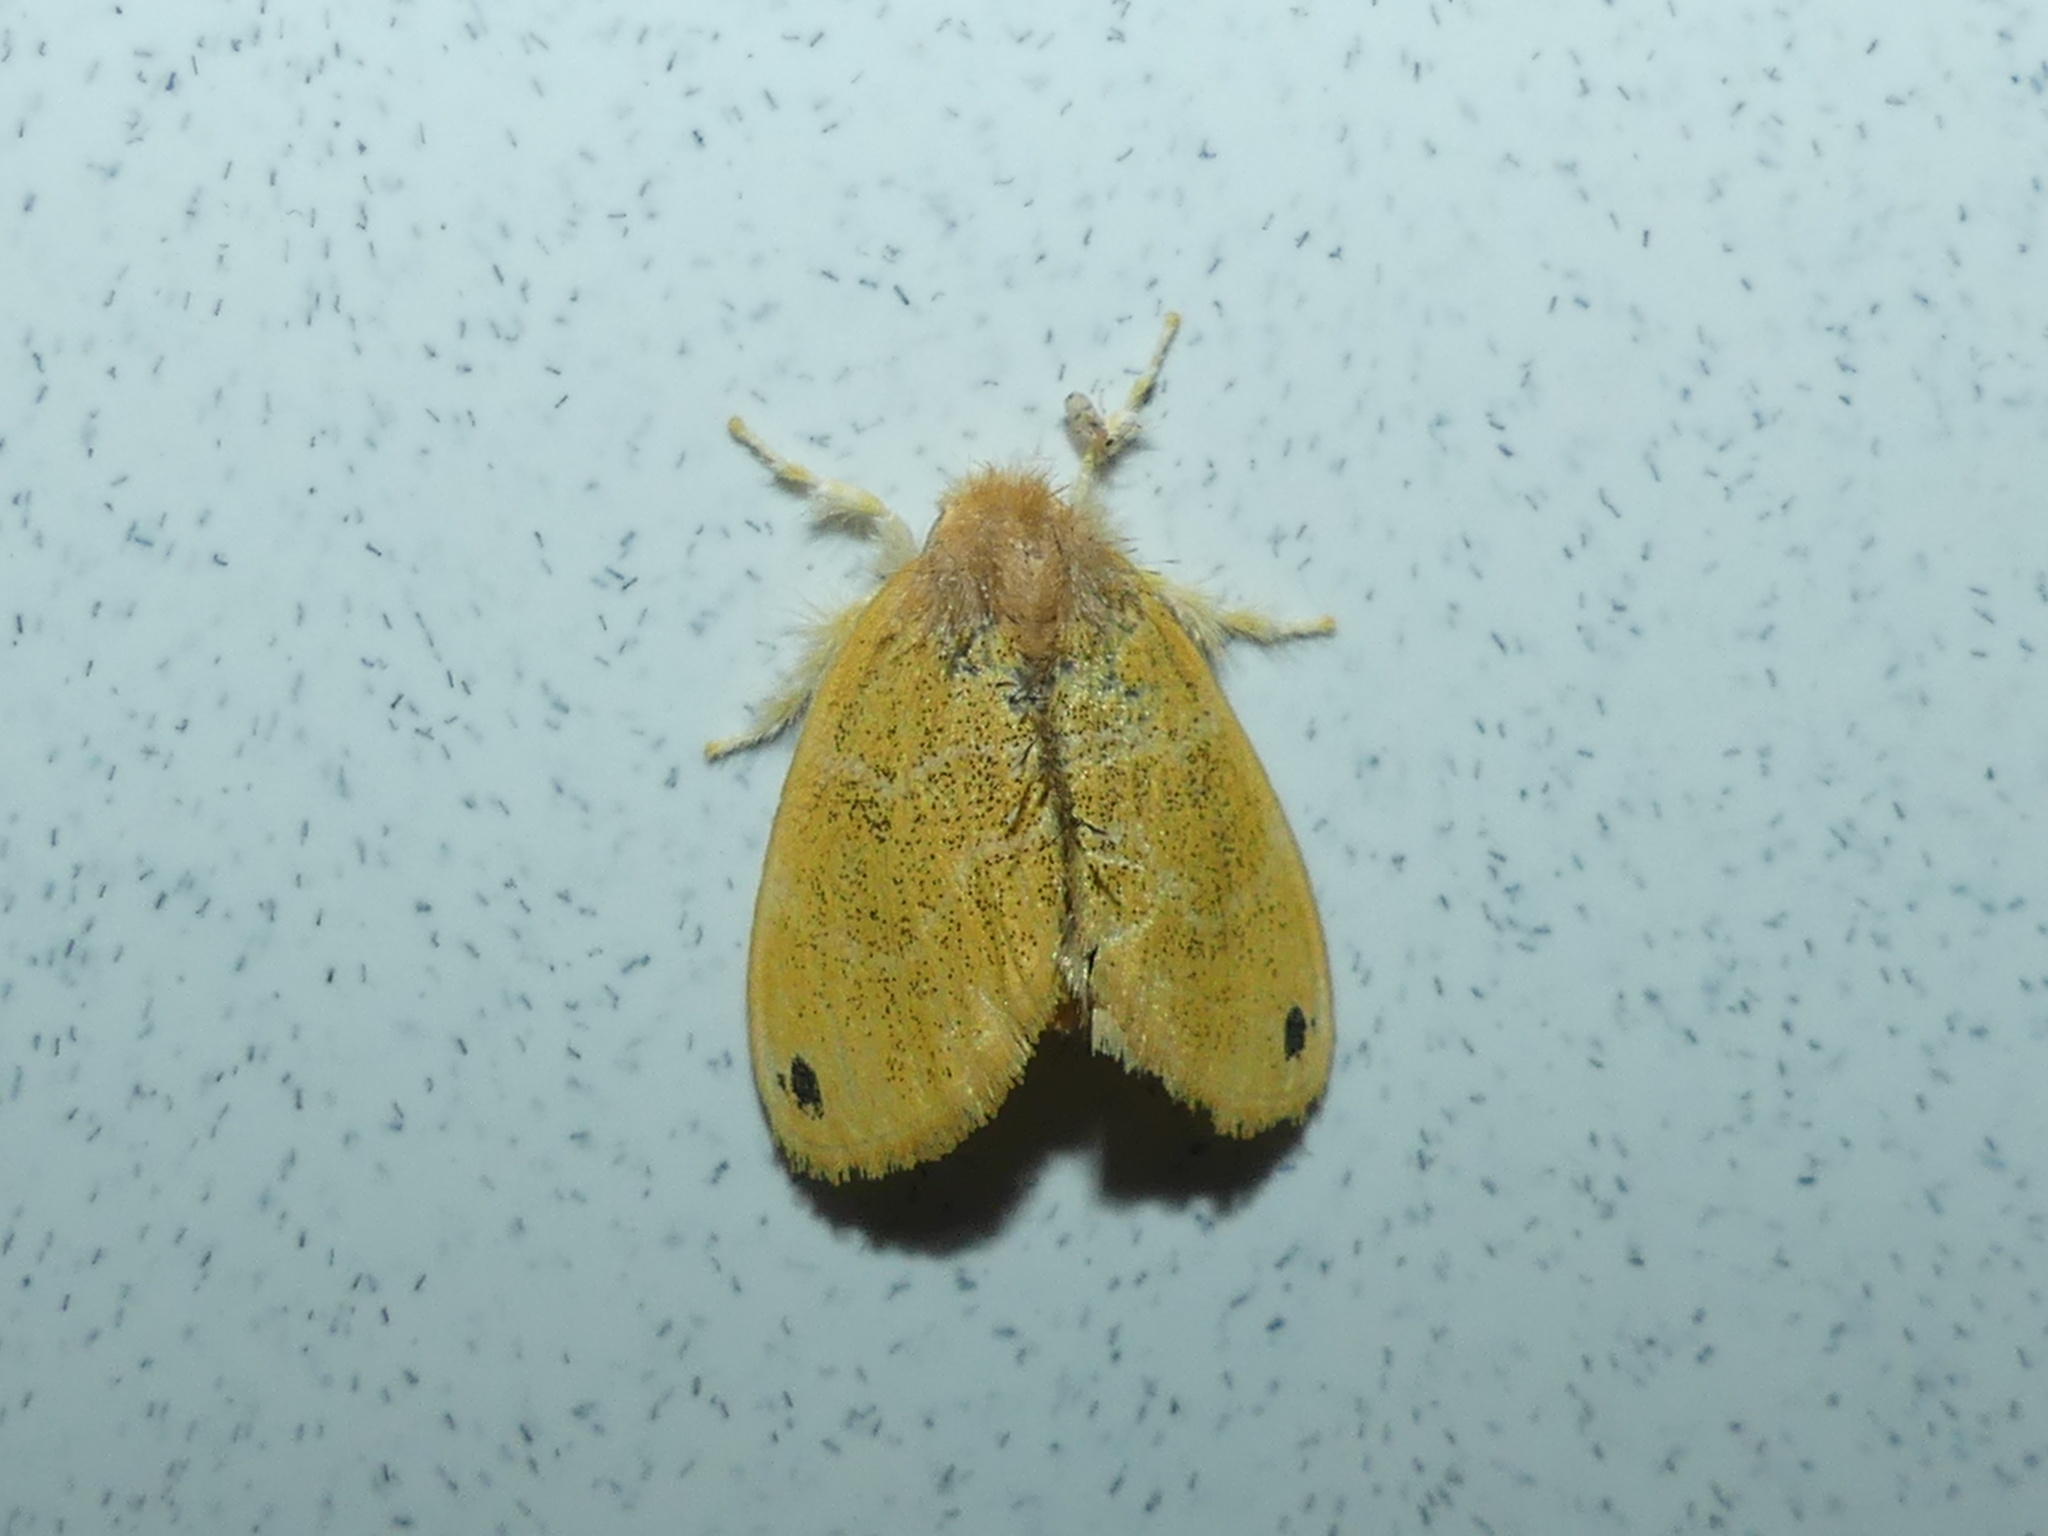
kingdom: Animalia
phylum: Arthropoda
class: Insecta
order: Lepidoptera
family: Erebidae
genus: Artaxa
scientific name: Artaxa tuhana
